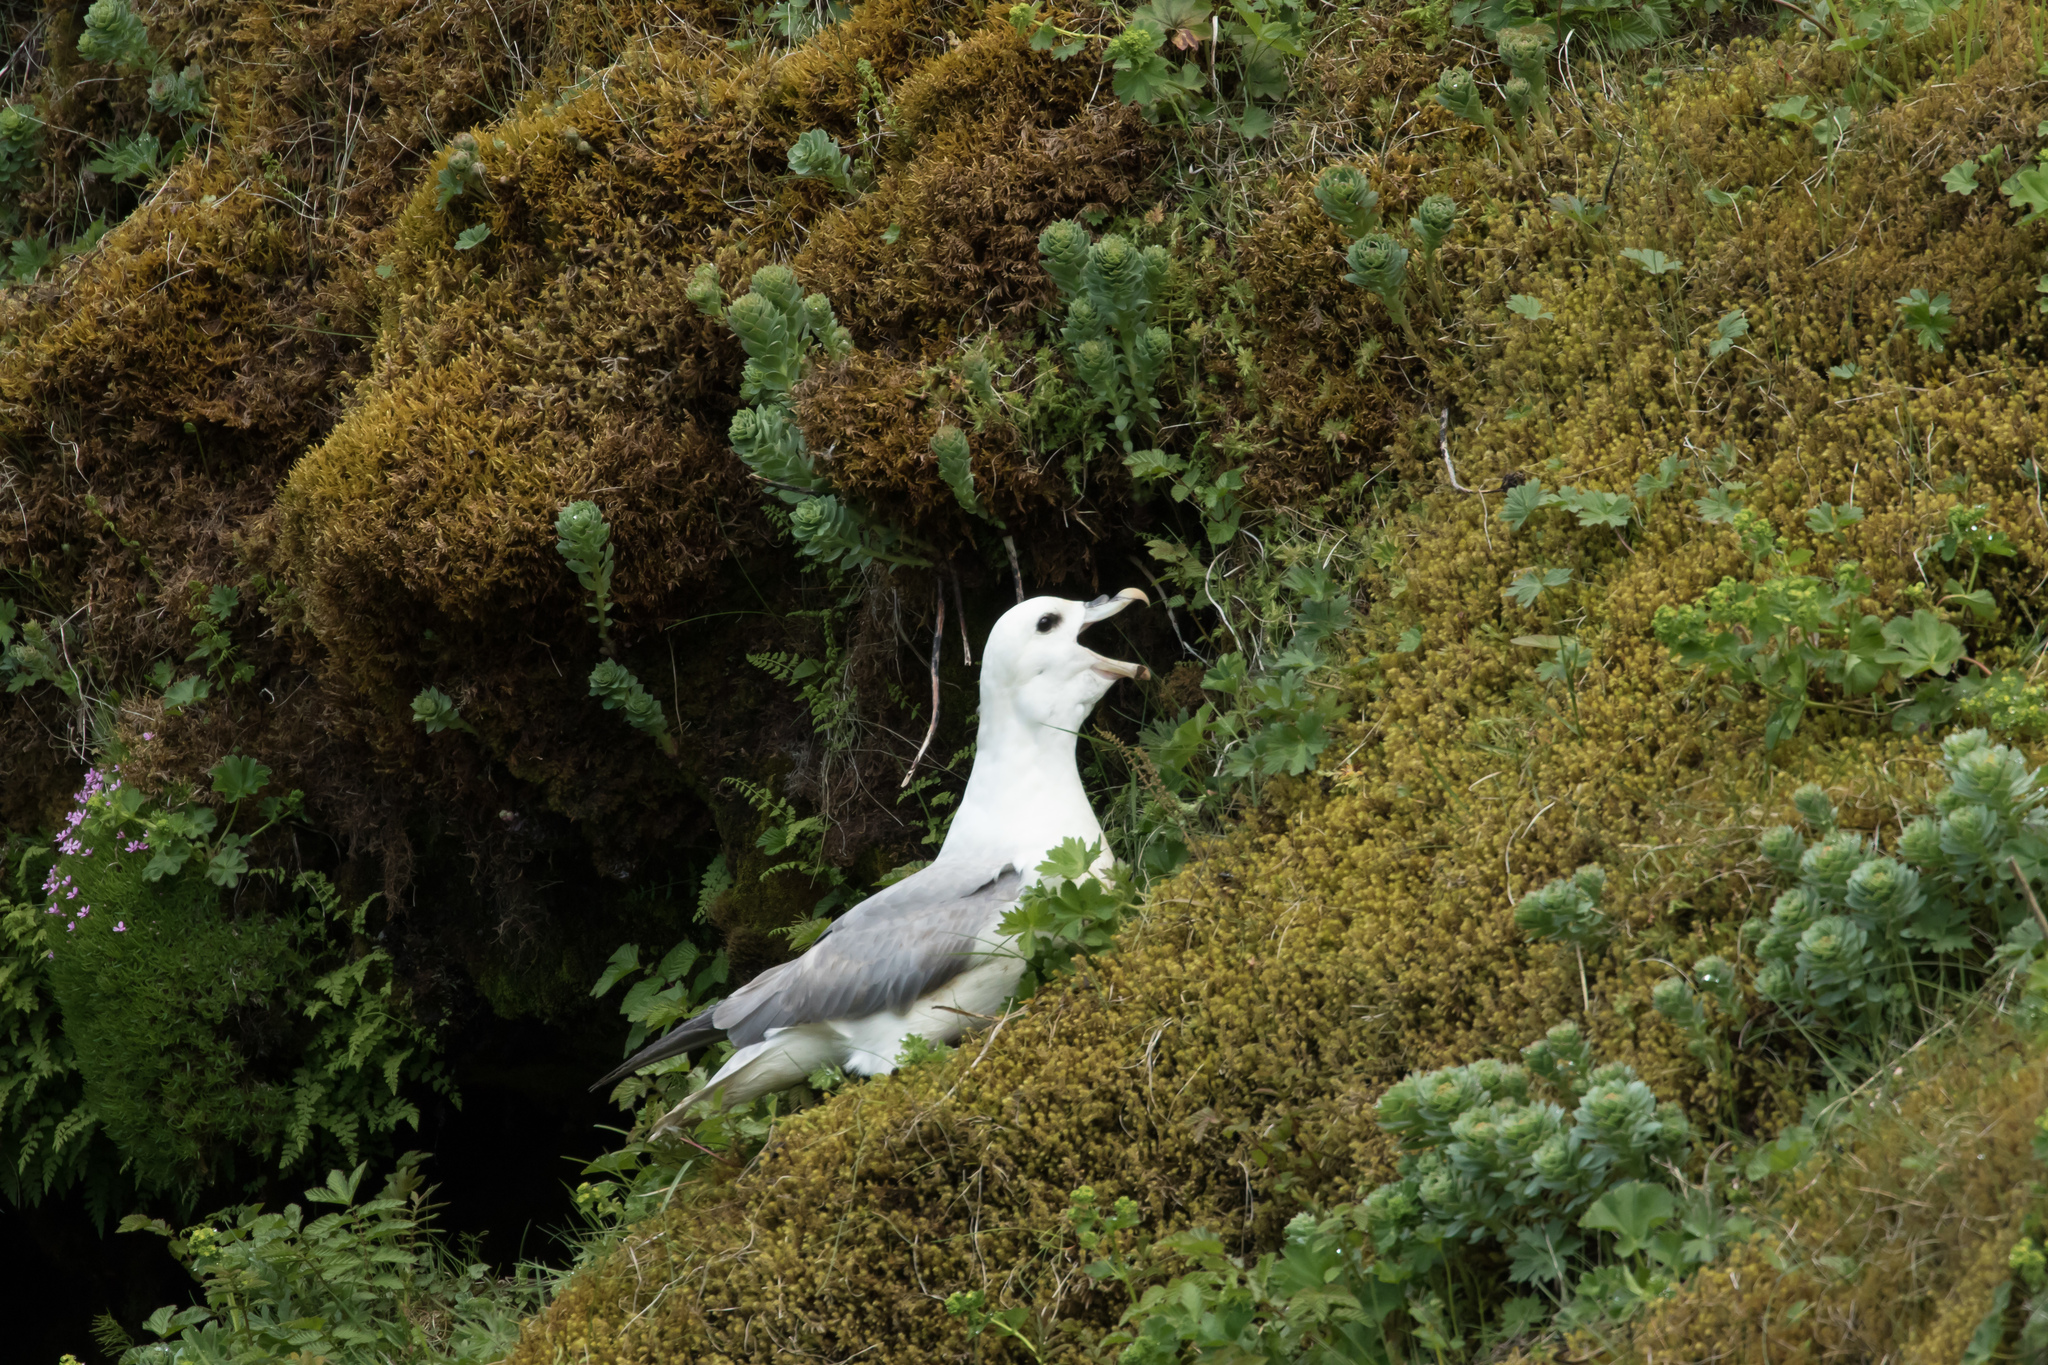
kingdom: Animalia
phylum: Chordata
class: Aves
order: Procellariiformes
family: Procellariidae
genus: Fulmarus
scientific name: Fulmarus glacialis
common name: Northern fulmar
